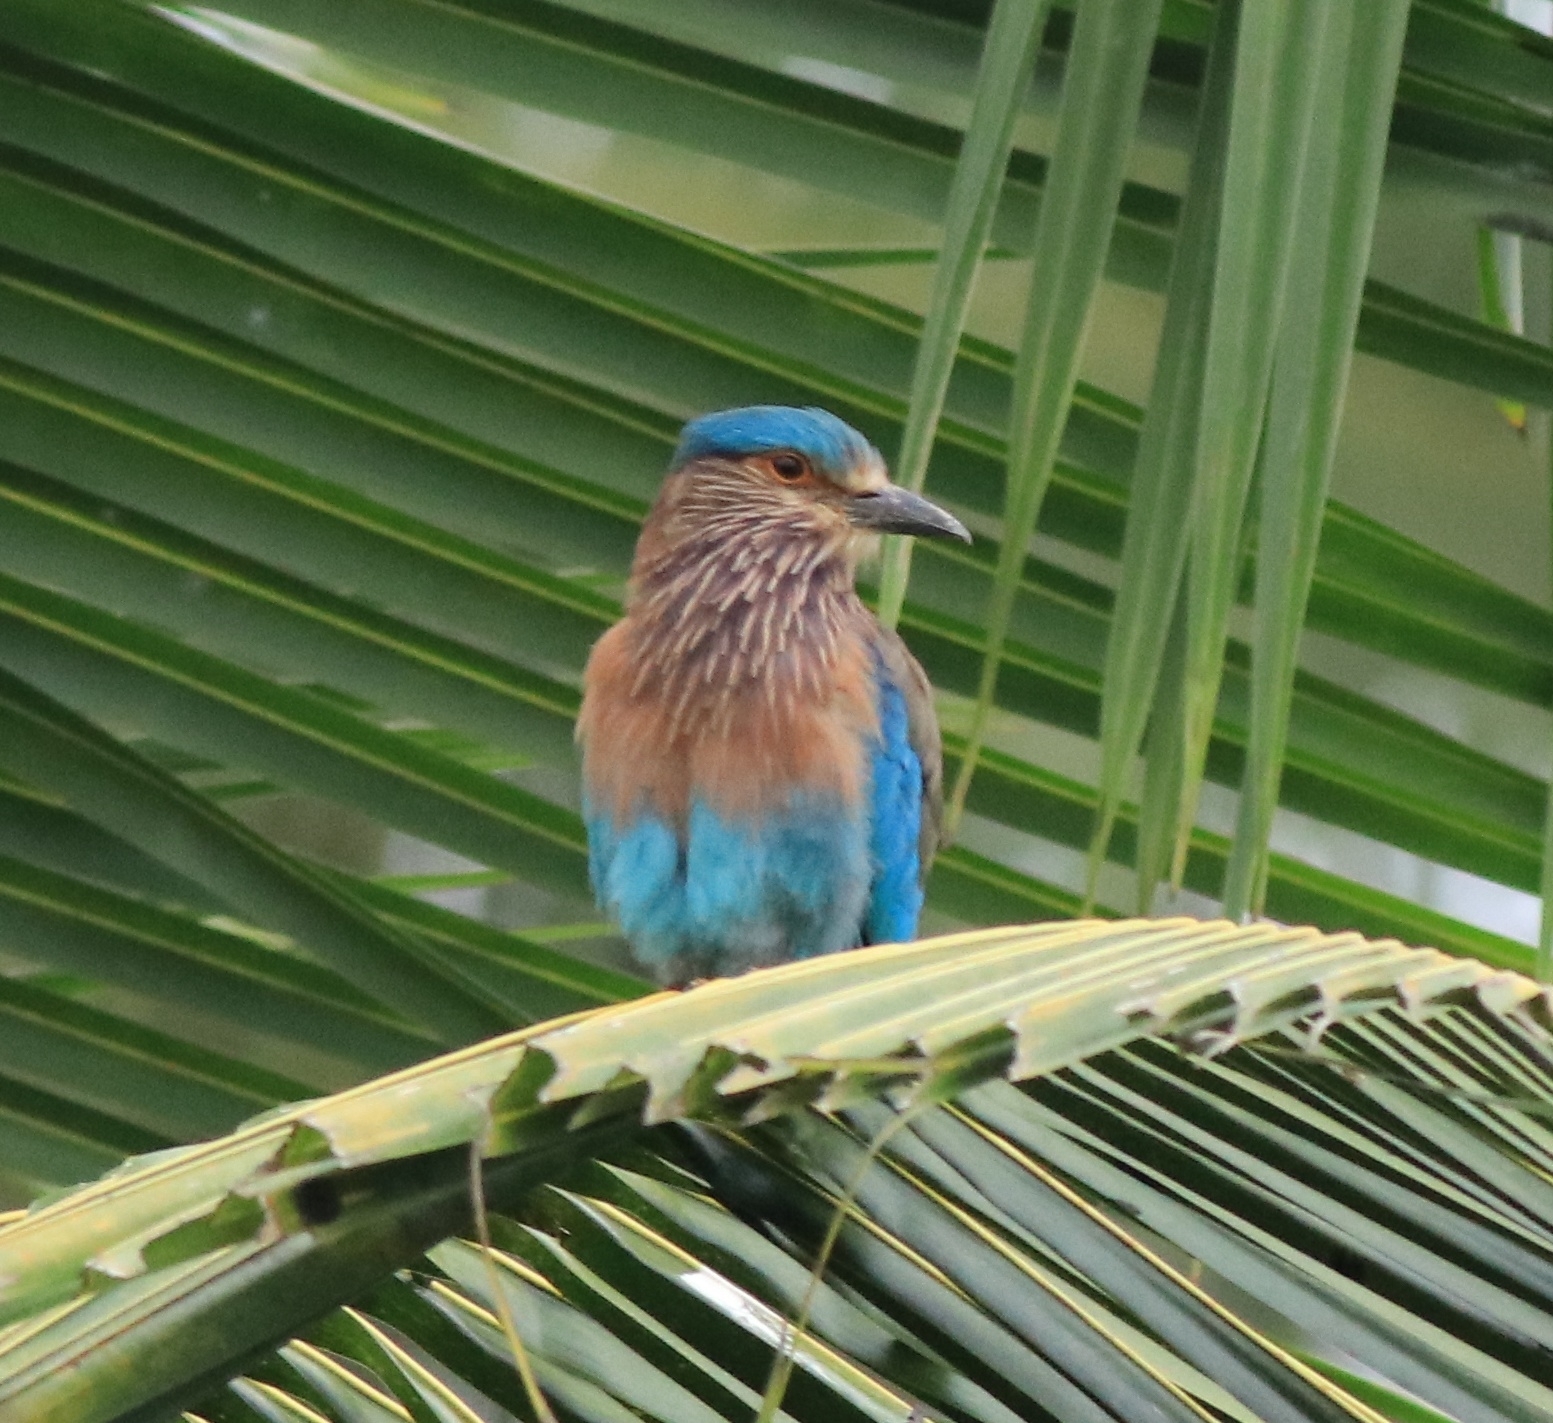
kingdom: Animalia
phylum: Chordata
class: Aves
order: Coraciiformes
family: Coraciidae
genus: Coracias
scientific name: Coracias benghalensis
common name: Indian roller
